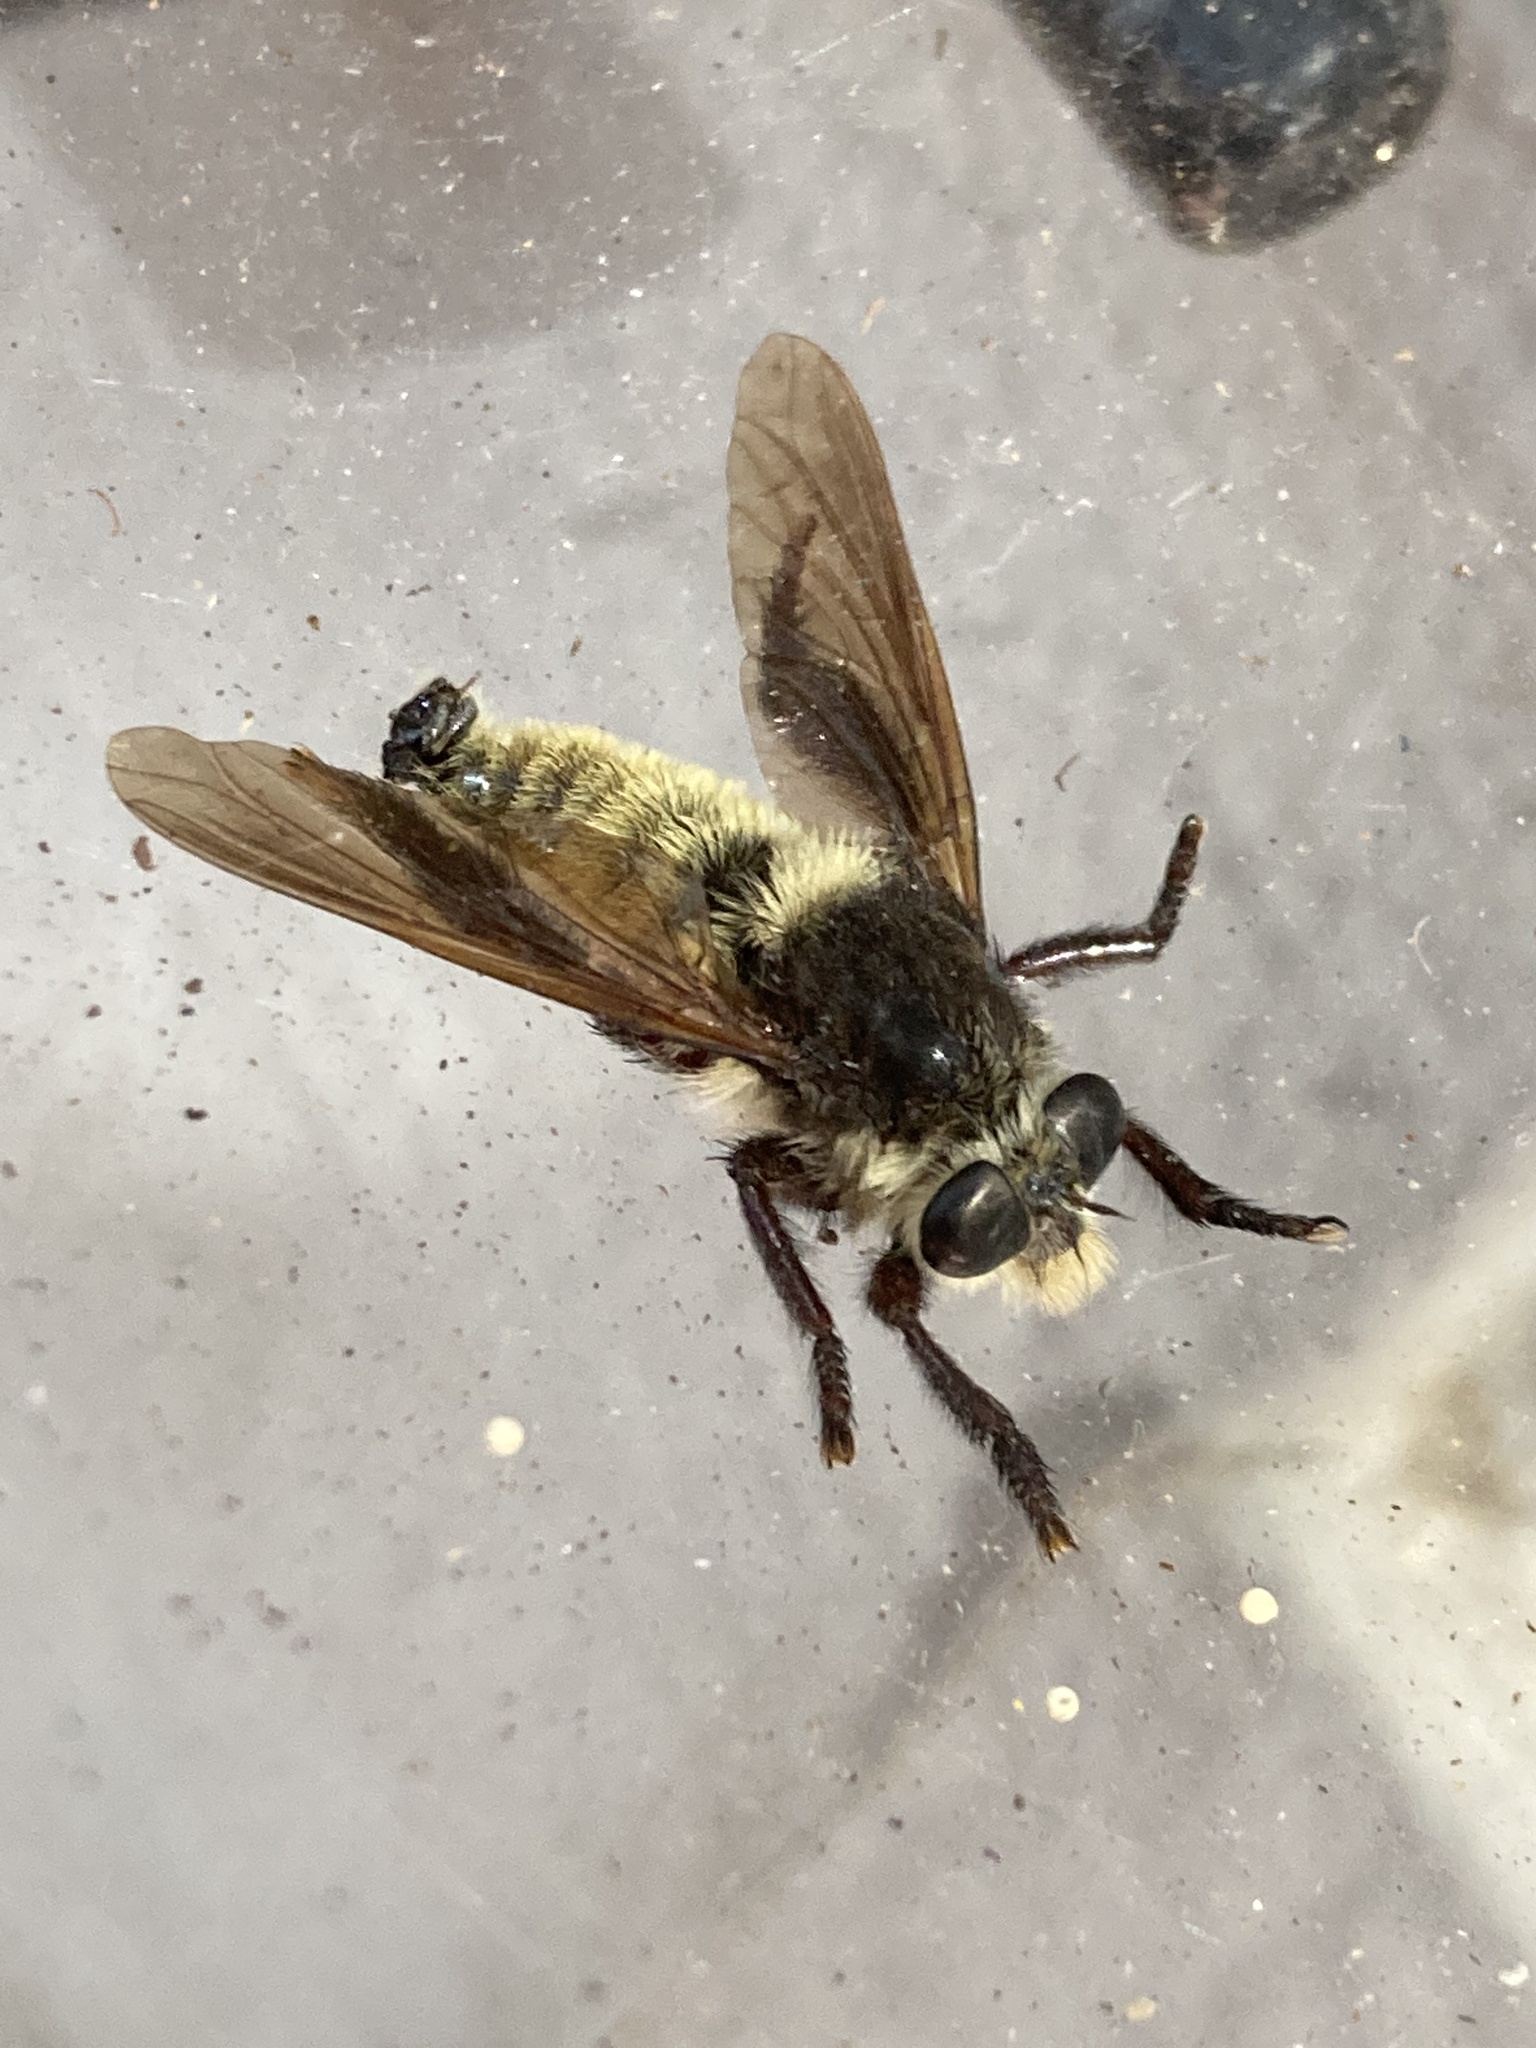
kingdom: Animalia
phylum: Arthropoda
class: Insecta
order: Diptera
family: Asilidae
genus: Mallophora
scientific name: Mallophora fautrix
